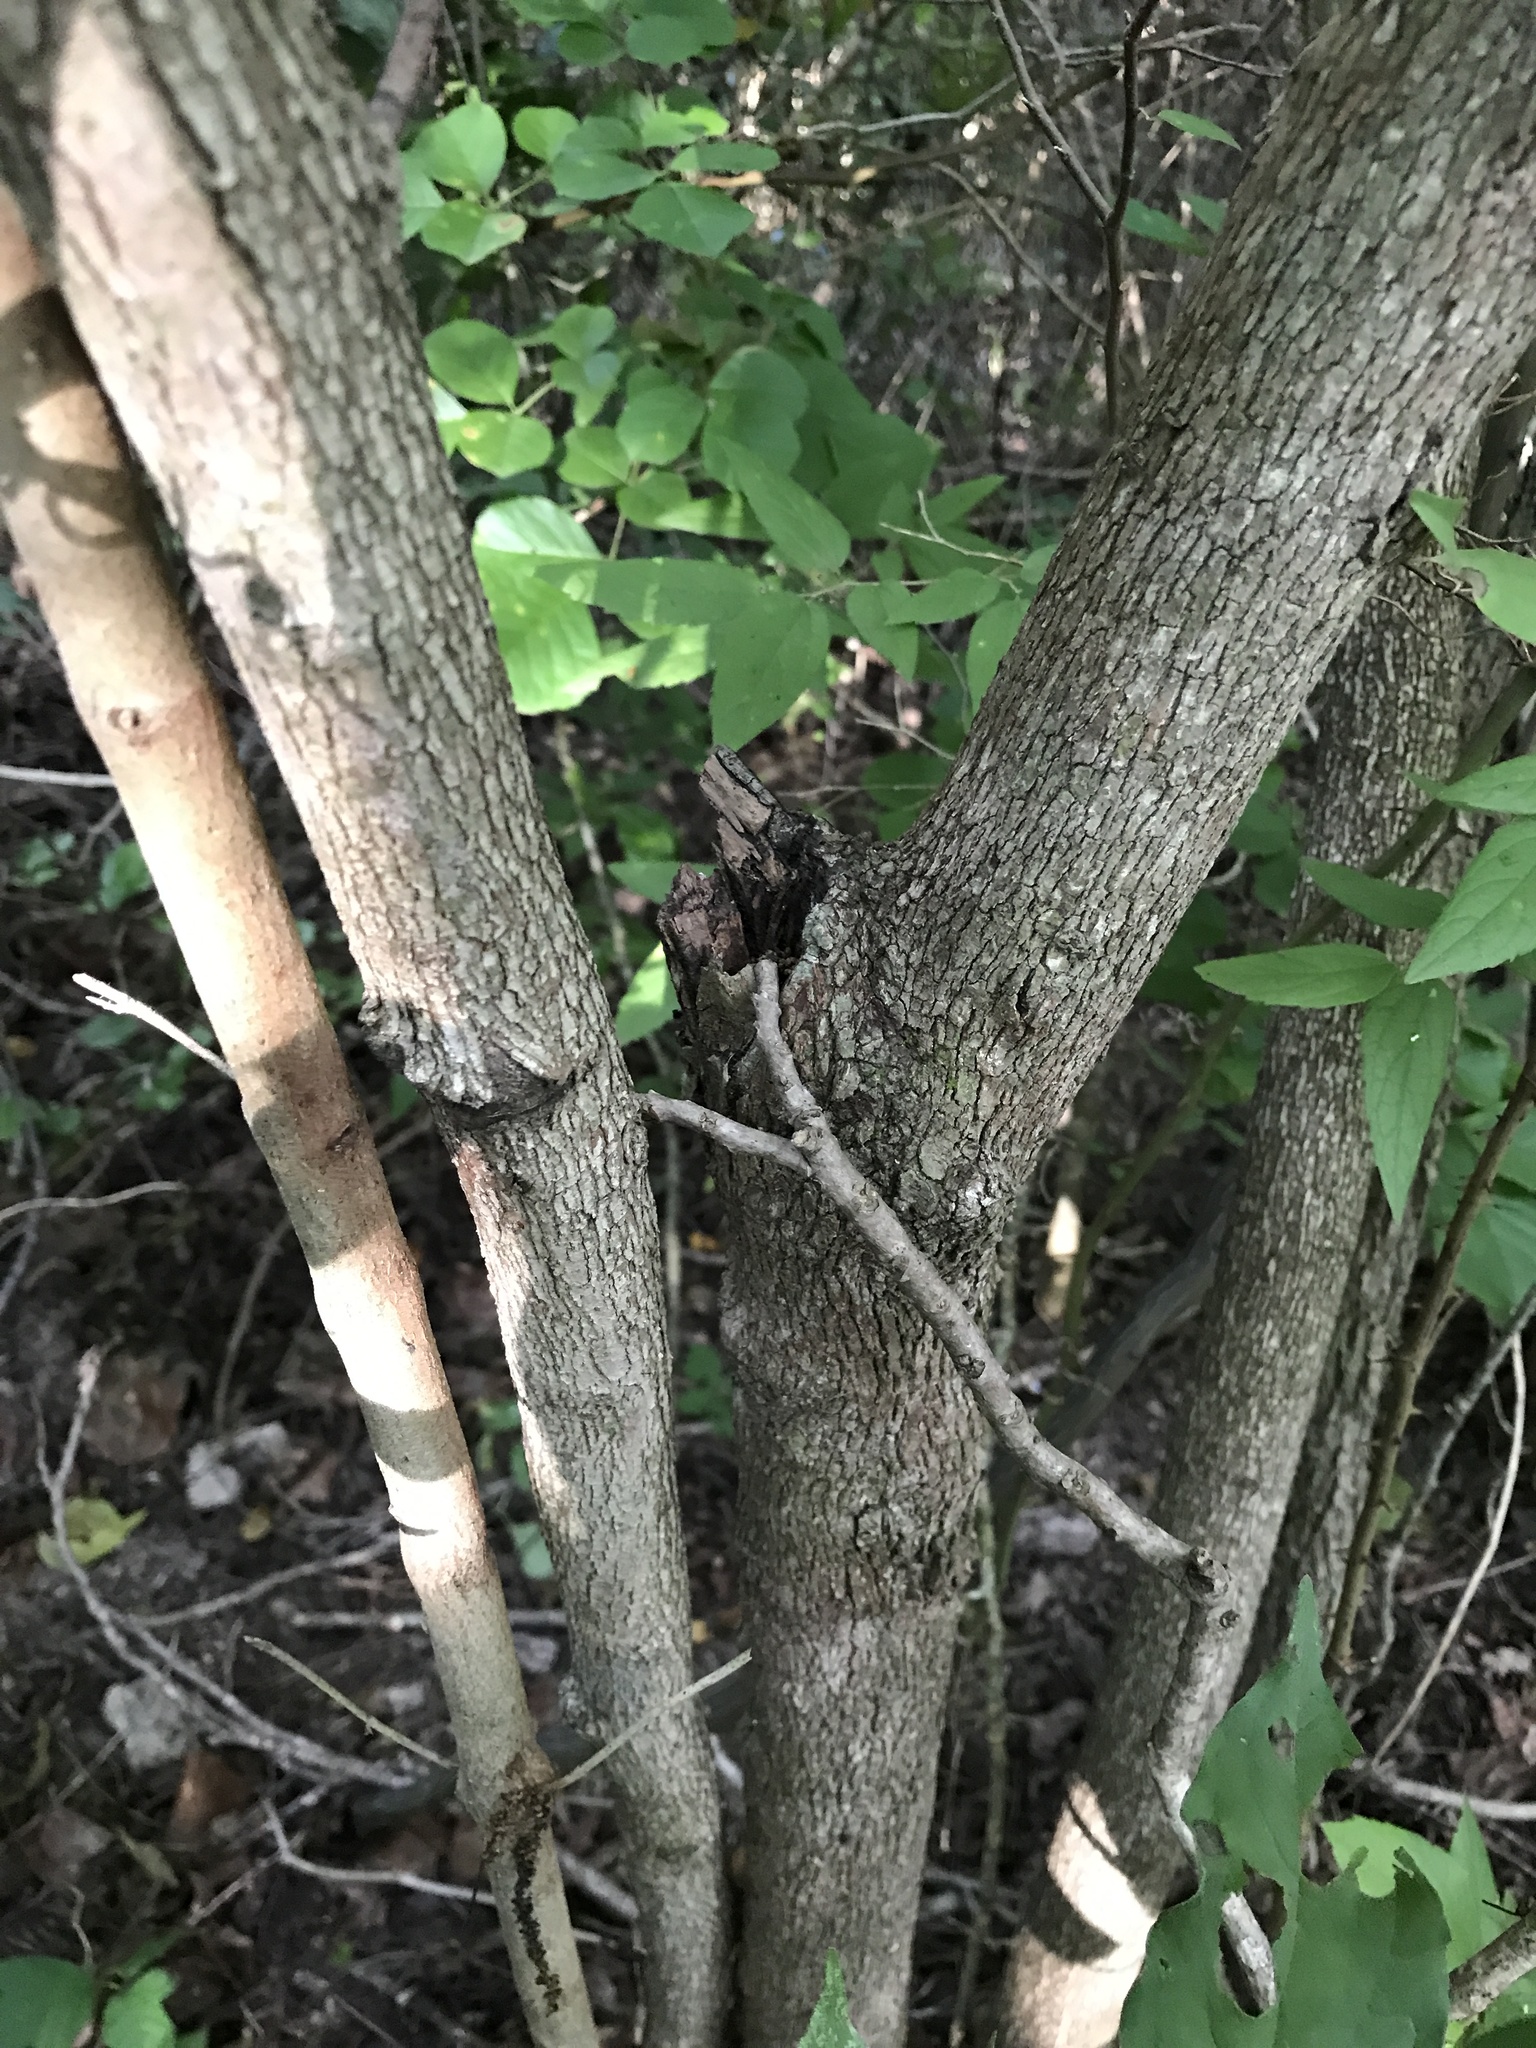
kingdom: Plantae
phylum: Tracheophyta
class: Magnoliopsida
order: Cornales
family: Cornaceae
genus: Cornus
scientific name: Cornus drummondii
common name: Rough-leaf dogwood
